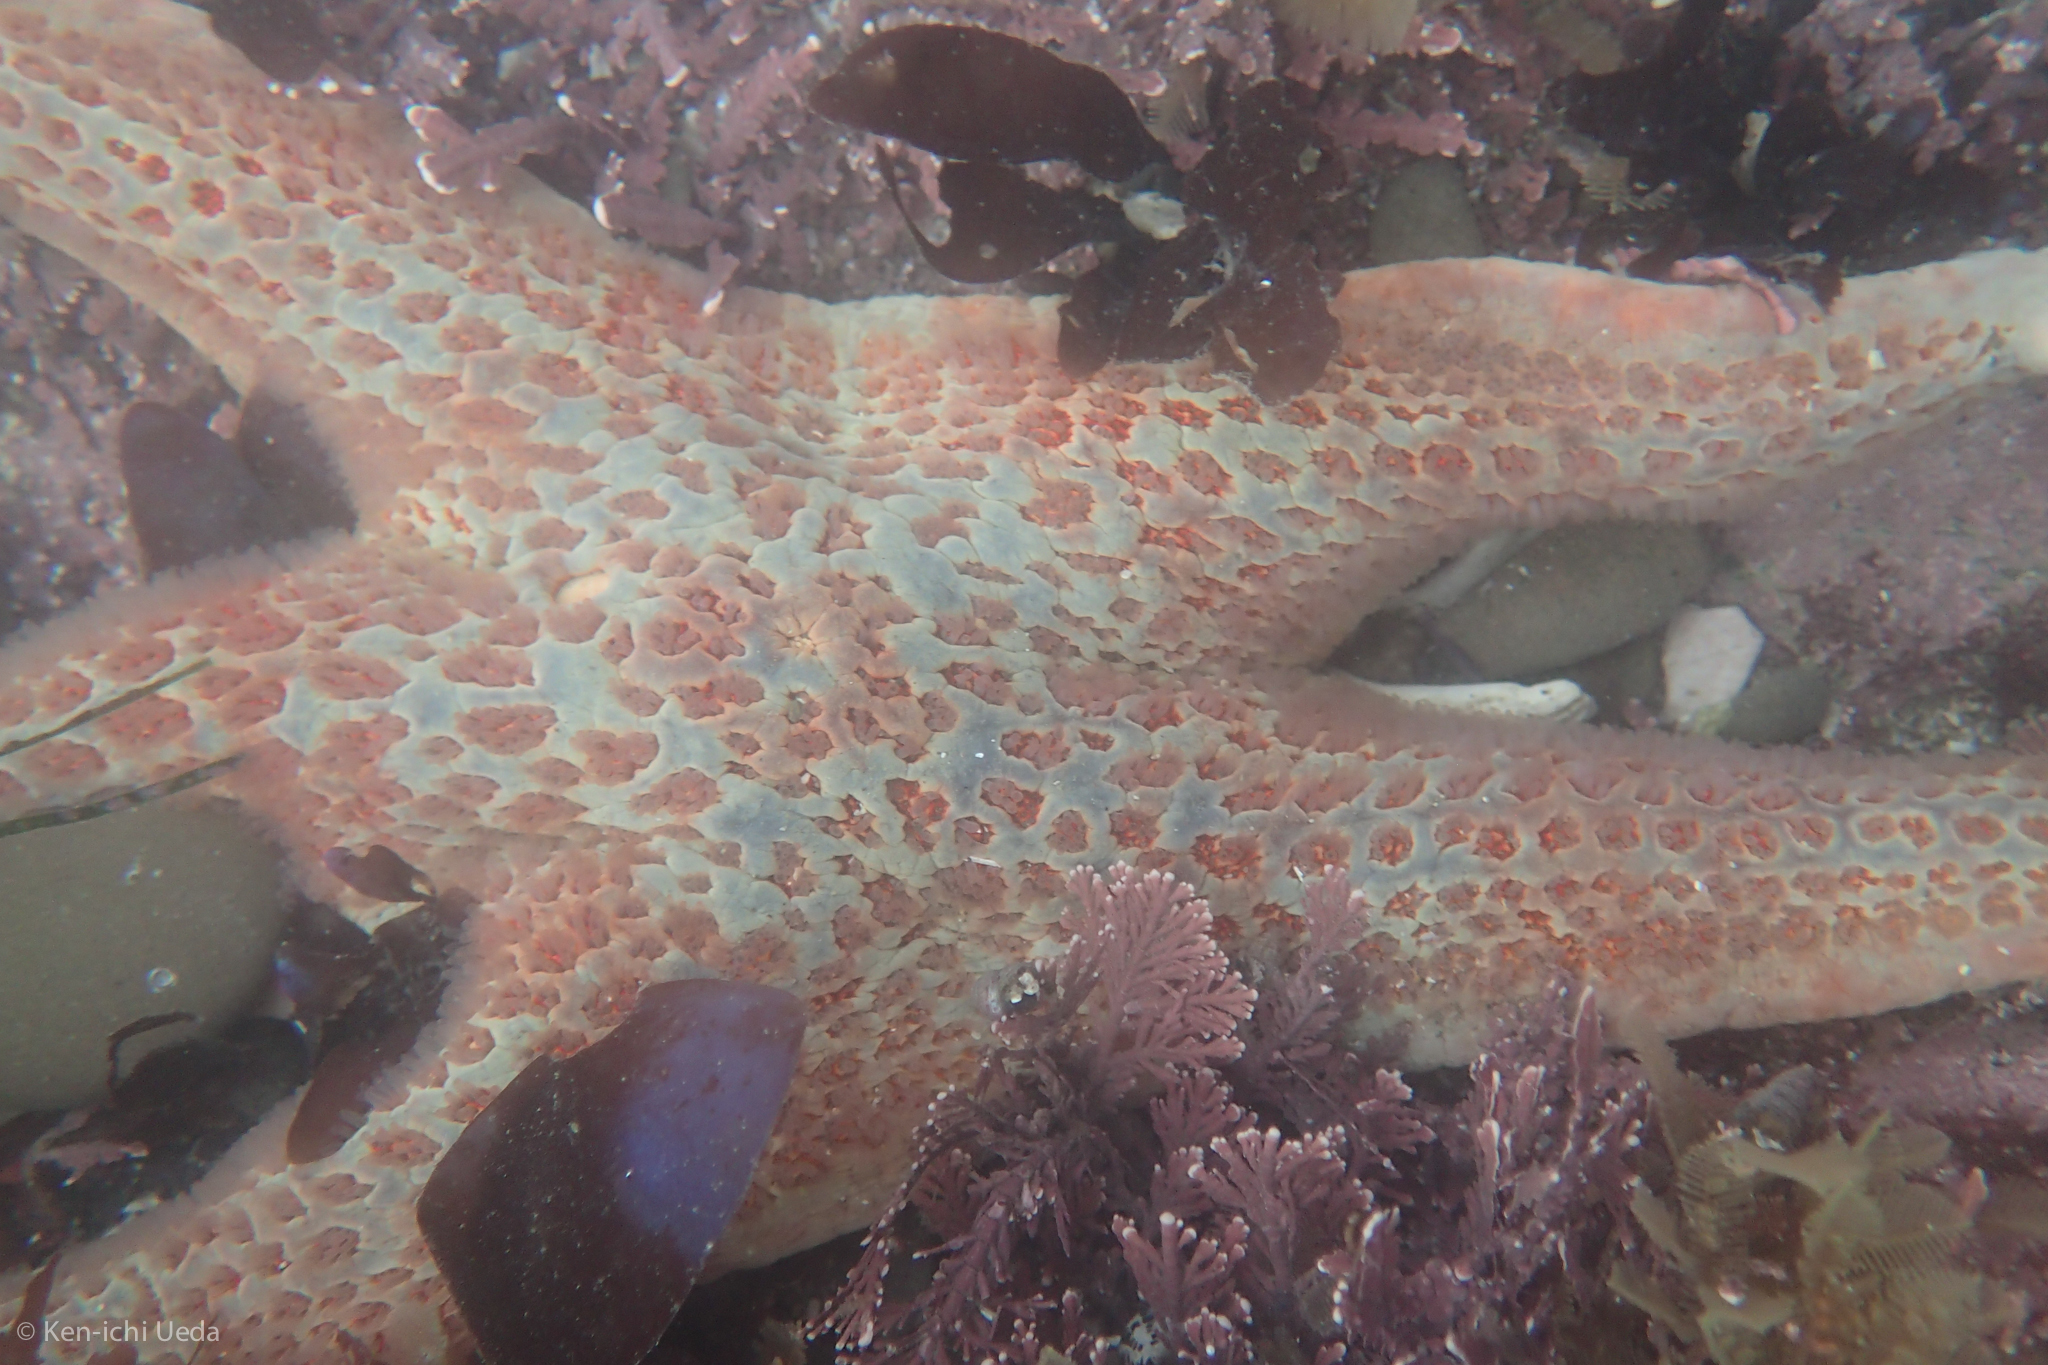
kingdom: Animalia
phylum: Echinodermata
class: Asteroidea
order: Valvatida
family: Asteropseidae
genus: Dermasterias
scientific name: Dermasterias imbricata
